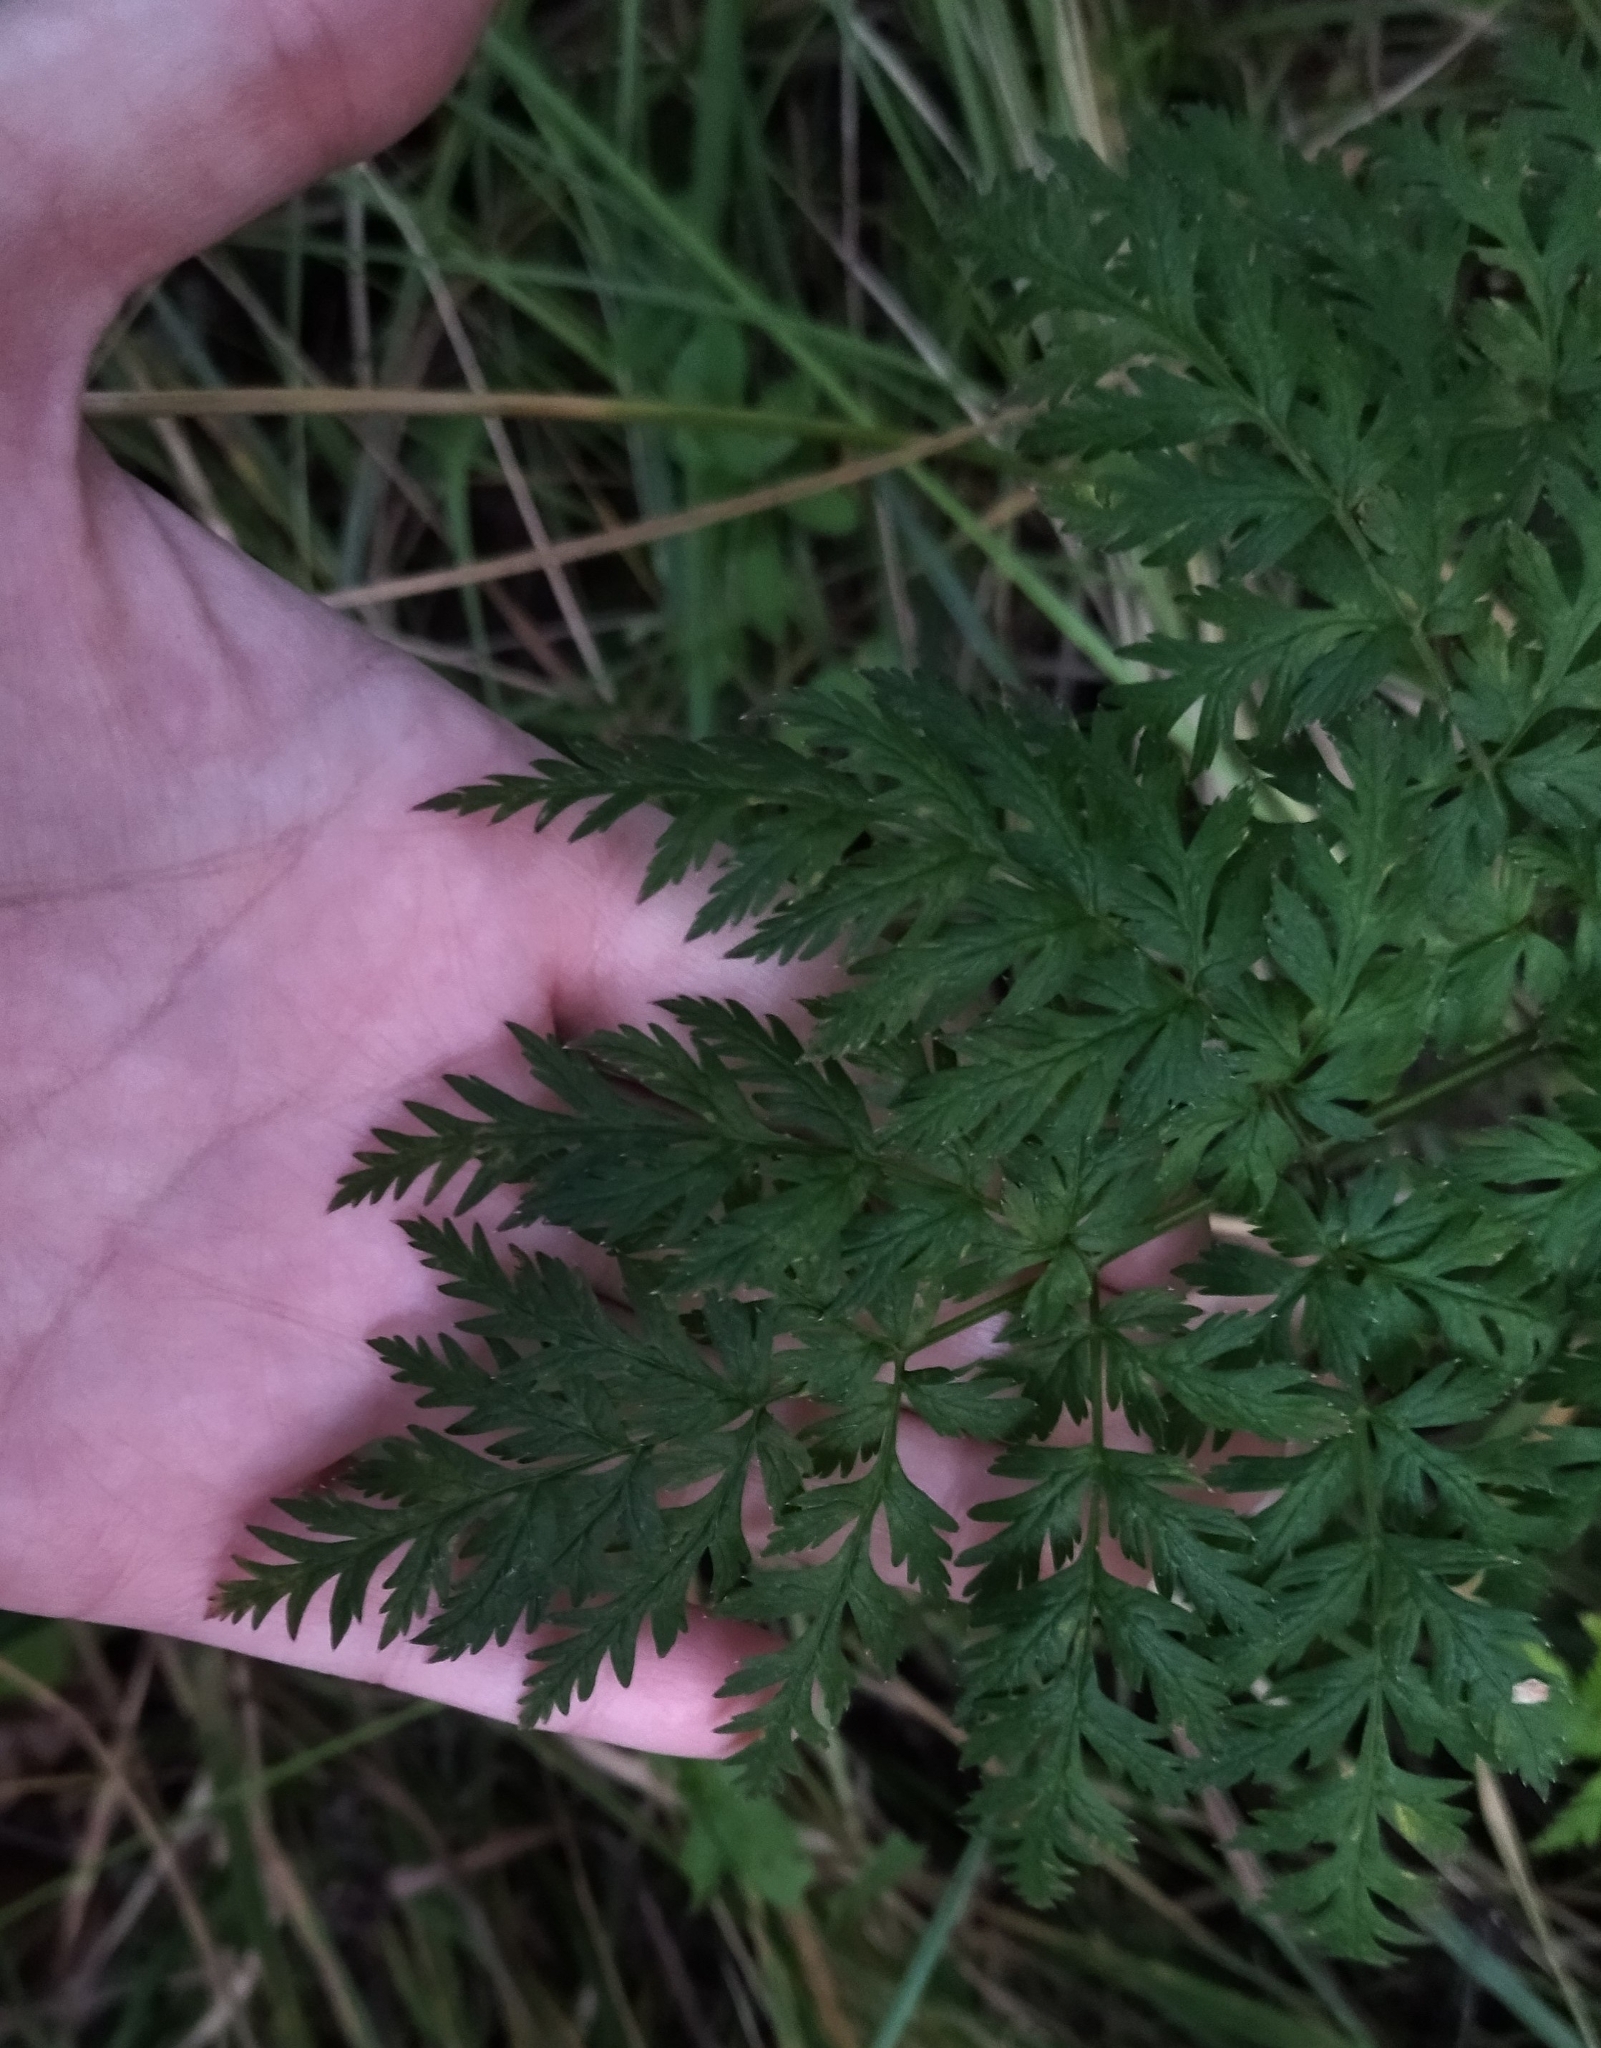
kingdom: Plantae
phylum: Tracheophyta
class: Magnoliopsida
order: Apiales
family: Apiaceae
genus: Anthriscus
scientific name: Anthriscus sylvestris
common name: Cow parsley
